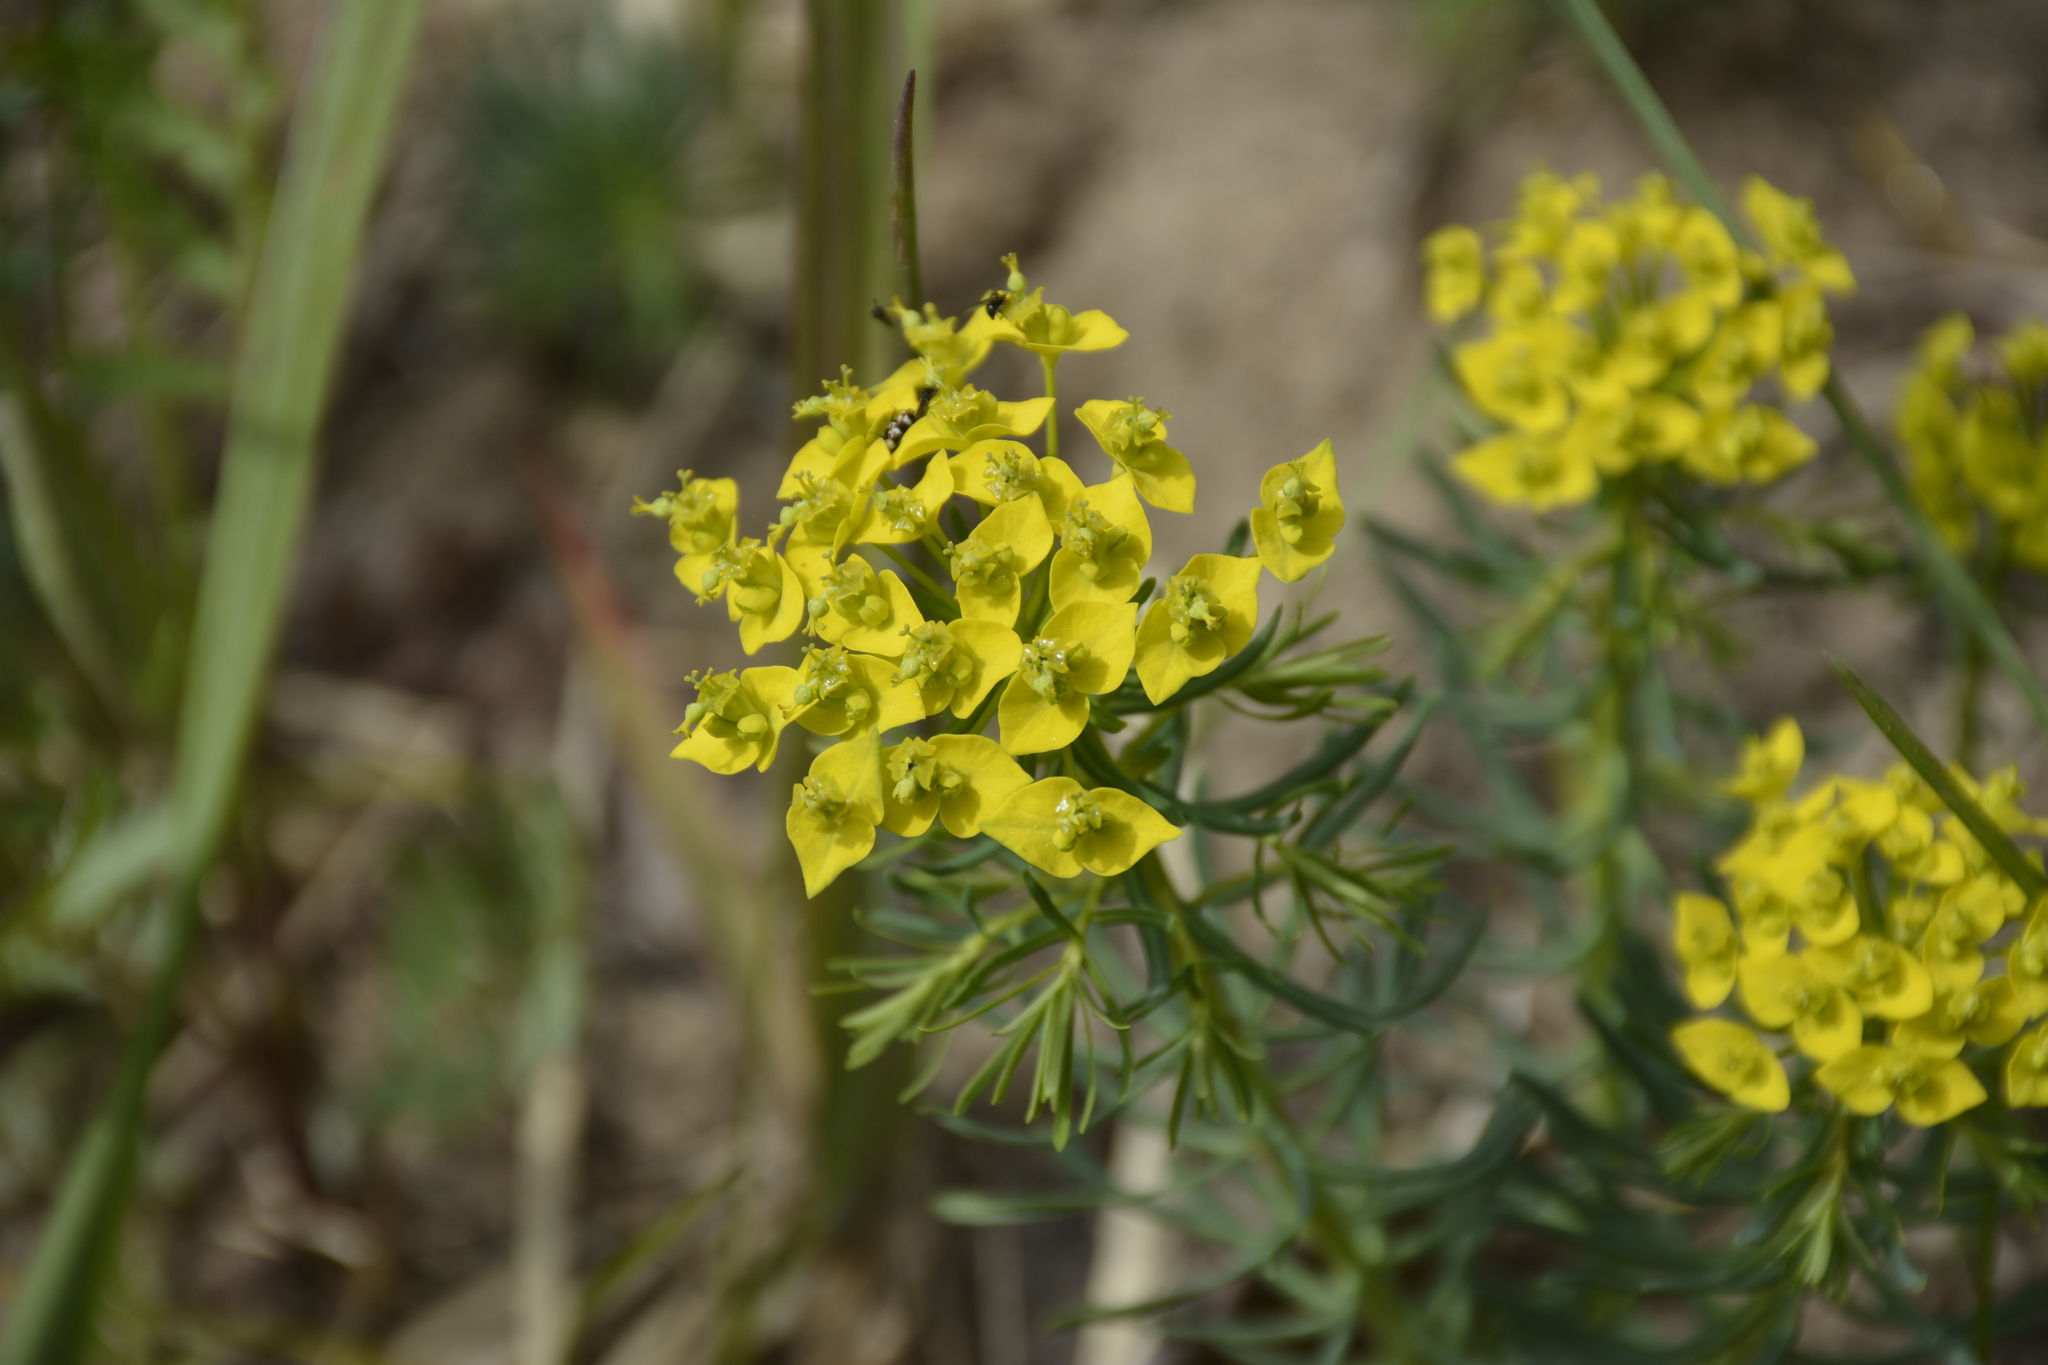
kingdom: Plantae
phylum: Tracheophyta
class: Magnoliopsida
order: Malpighiales
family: Euphorbiaceae
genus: Euphorbia
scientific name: Euphorbia cyparissias
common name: Cypress spurge
